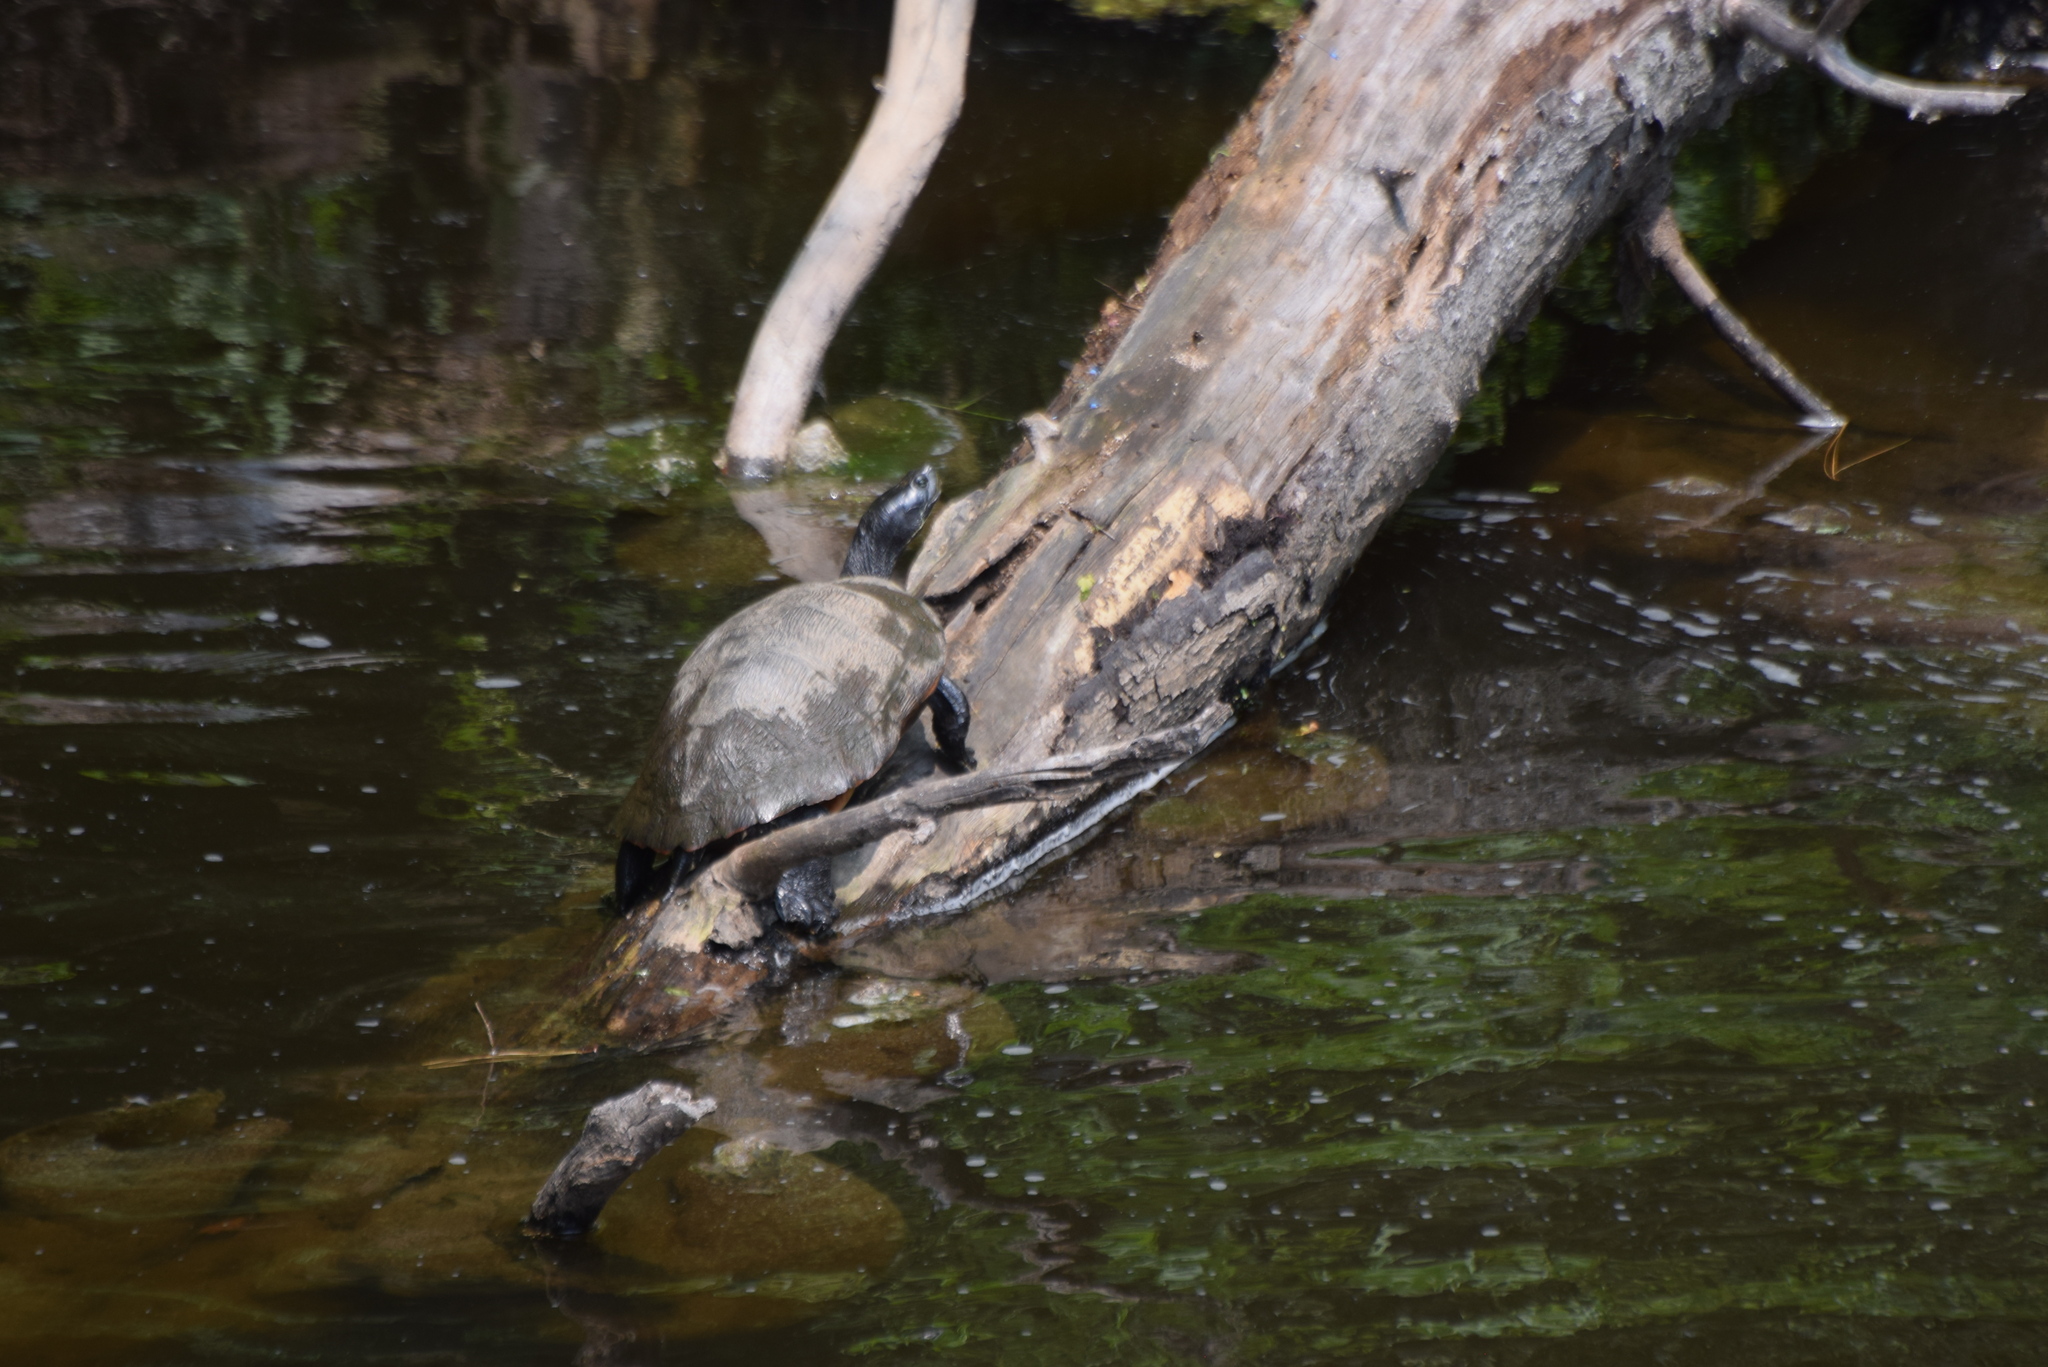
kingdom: Animalia
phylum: Chordata
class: Testudines
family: Emydidae
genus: Pseudemys
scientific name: Pseudemys rubriventris
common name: American red-bellied turtle
